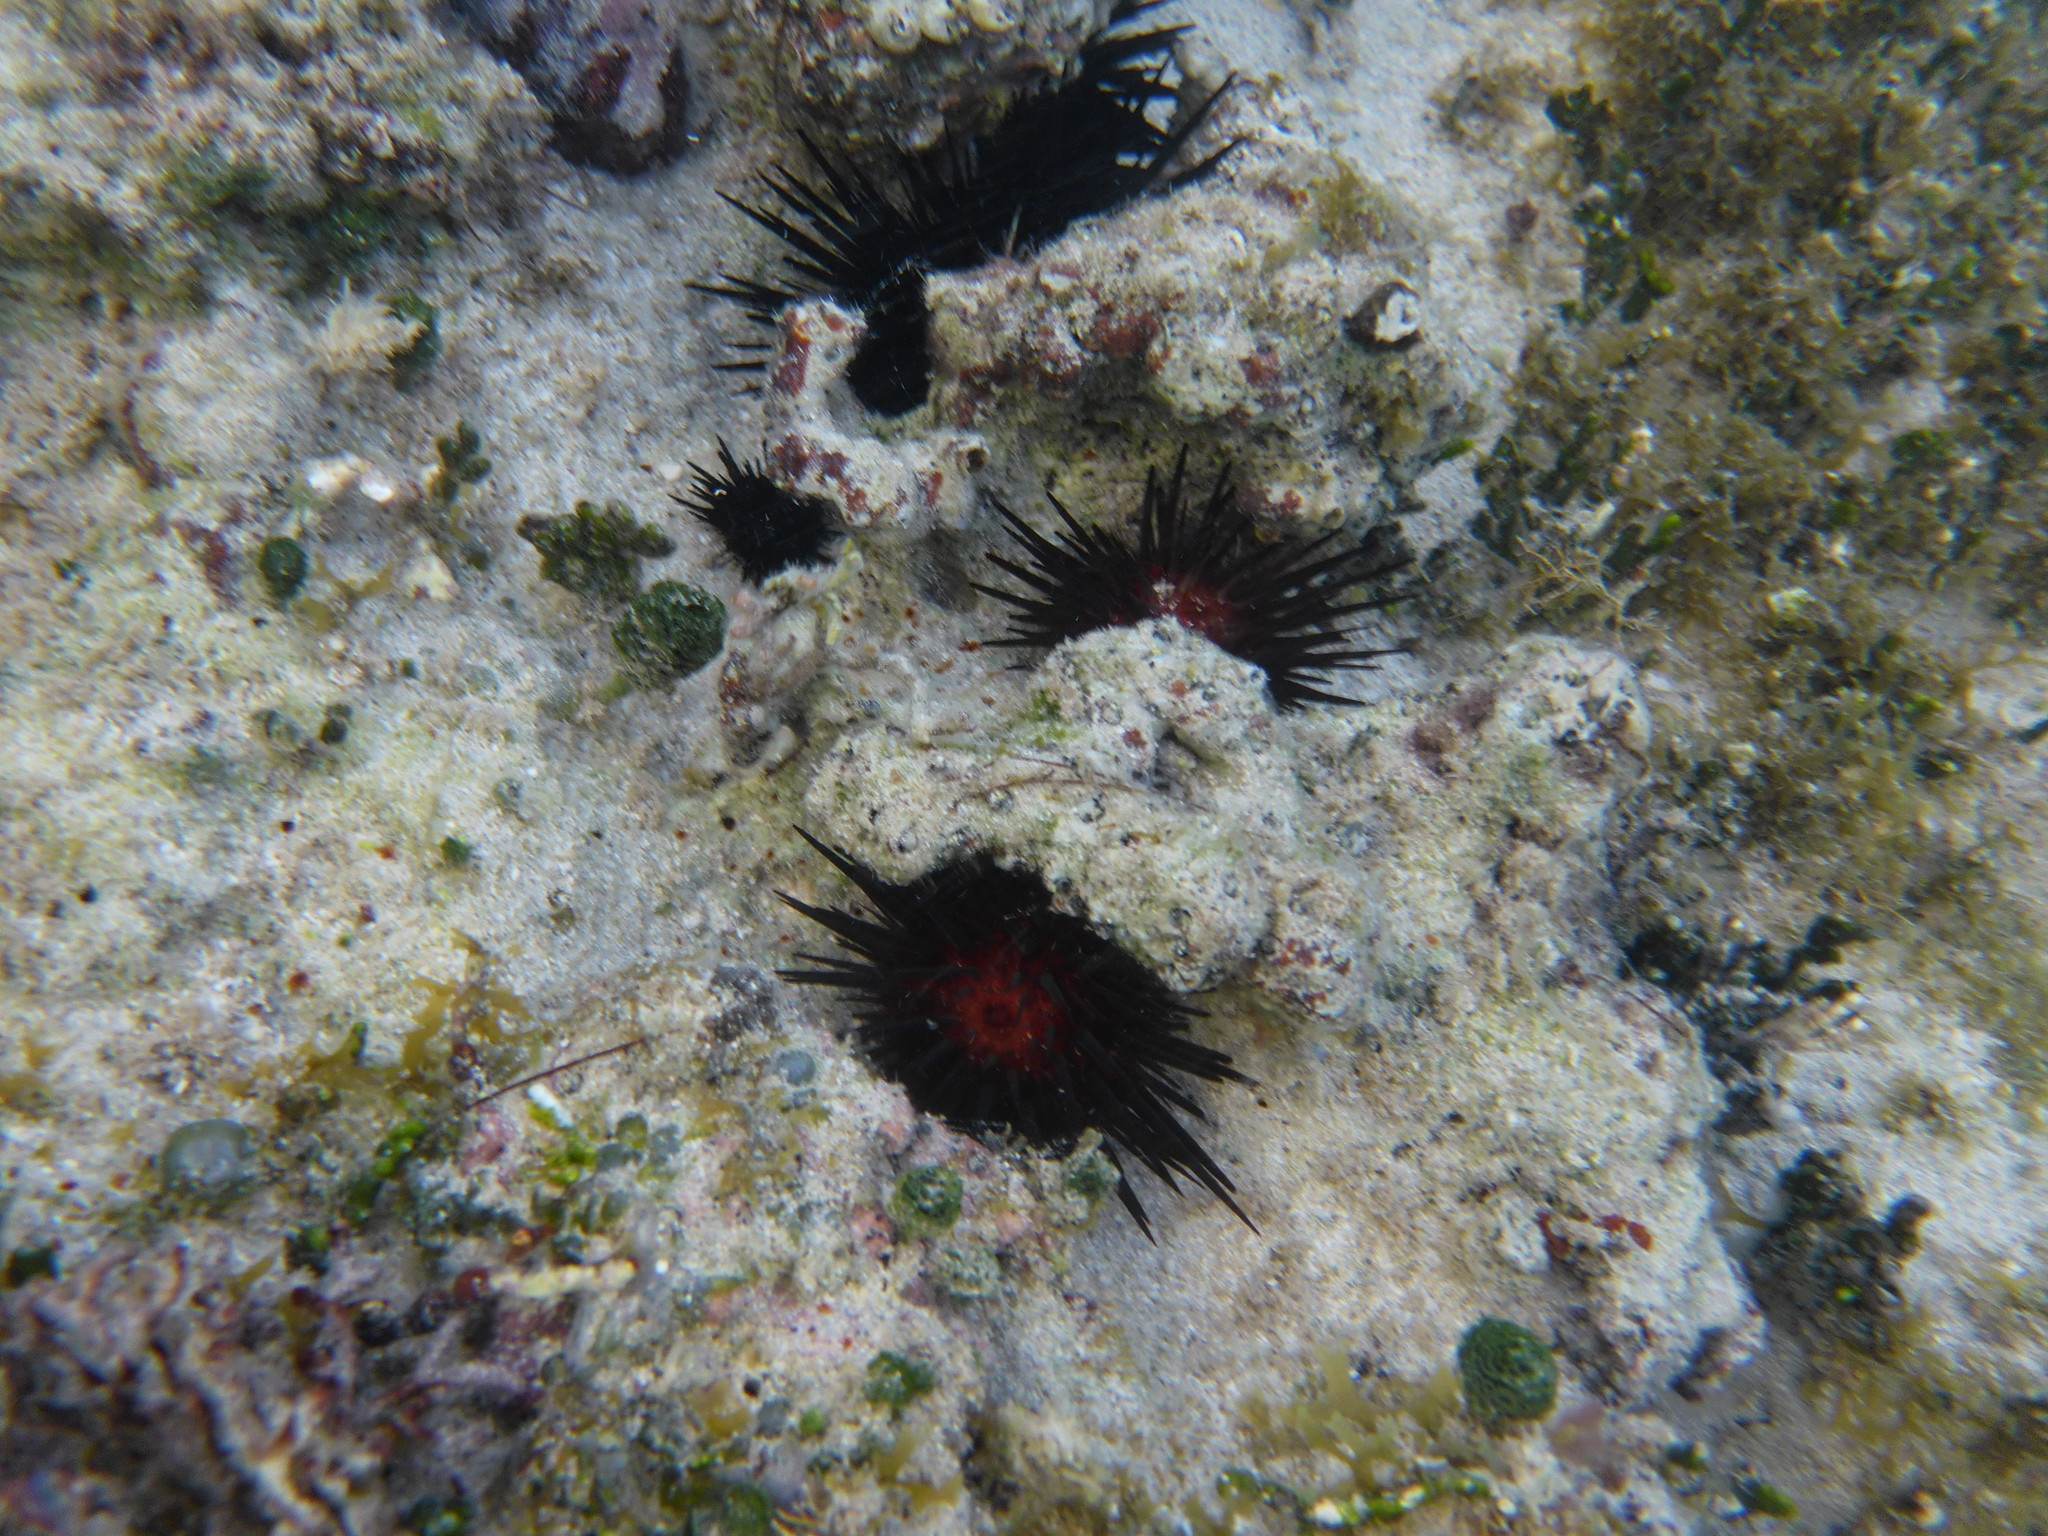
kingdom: Animalia
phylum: Echinodermata
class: Echinoidea
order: Camarodonta
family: Echinometridae
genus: Echinometra
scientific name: Echinometra lucunter
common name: Rock urchin
